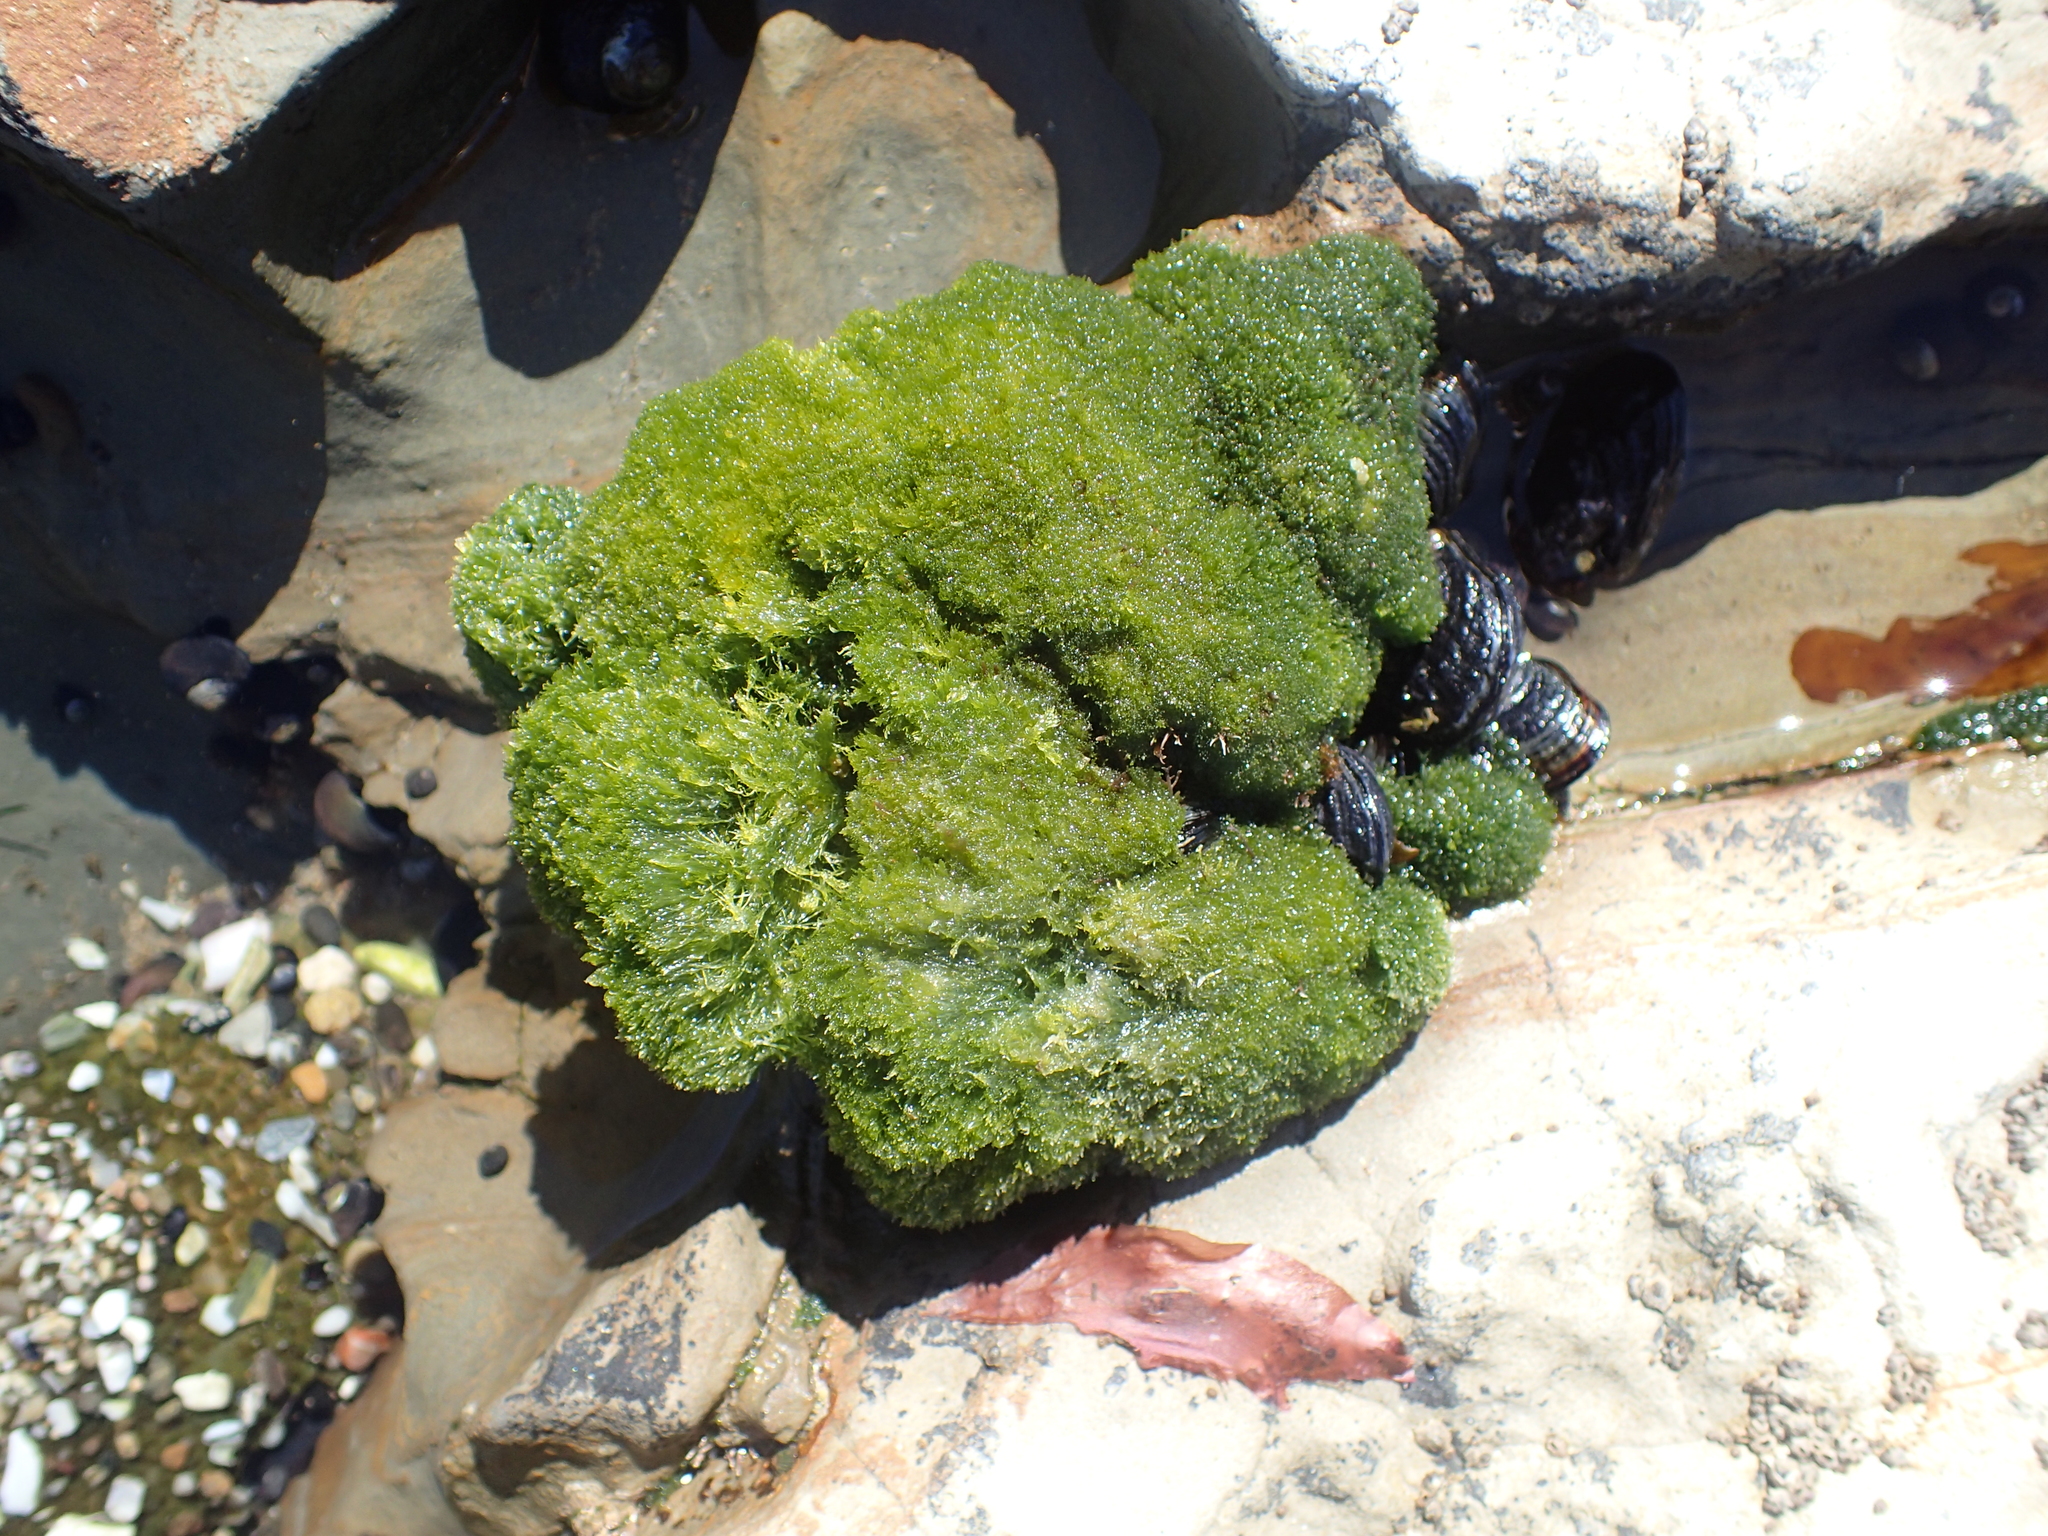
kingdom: Plantae
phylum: Chlorophyta
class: Ulvophyceae
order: Cladophorales
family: Cladophoraceae
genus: Cladophora
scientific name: Cladophora columbiana
